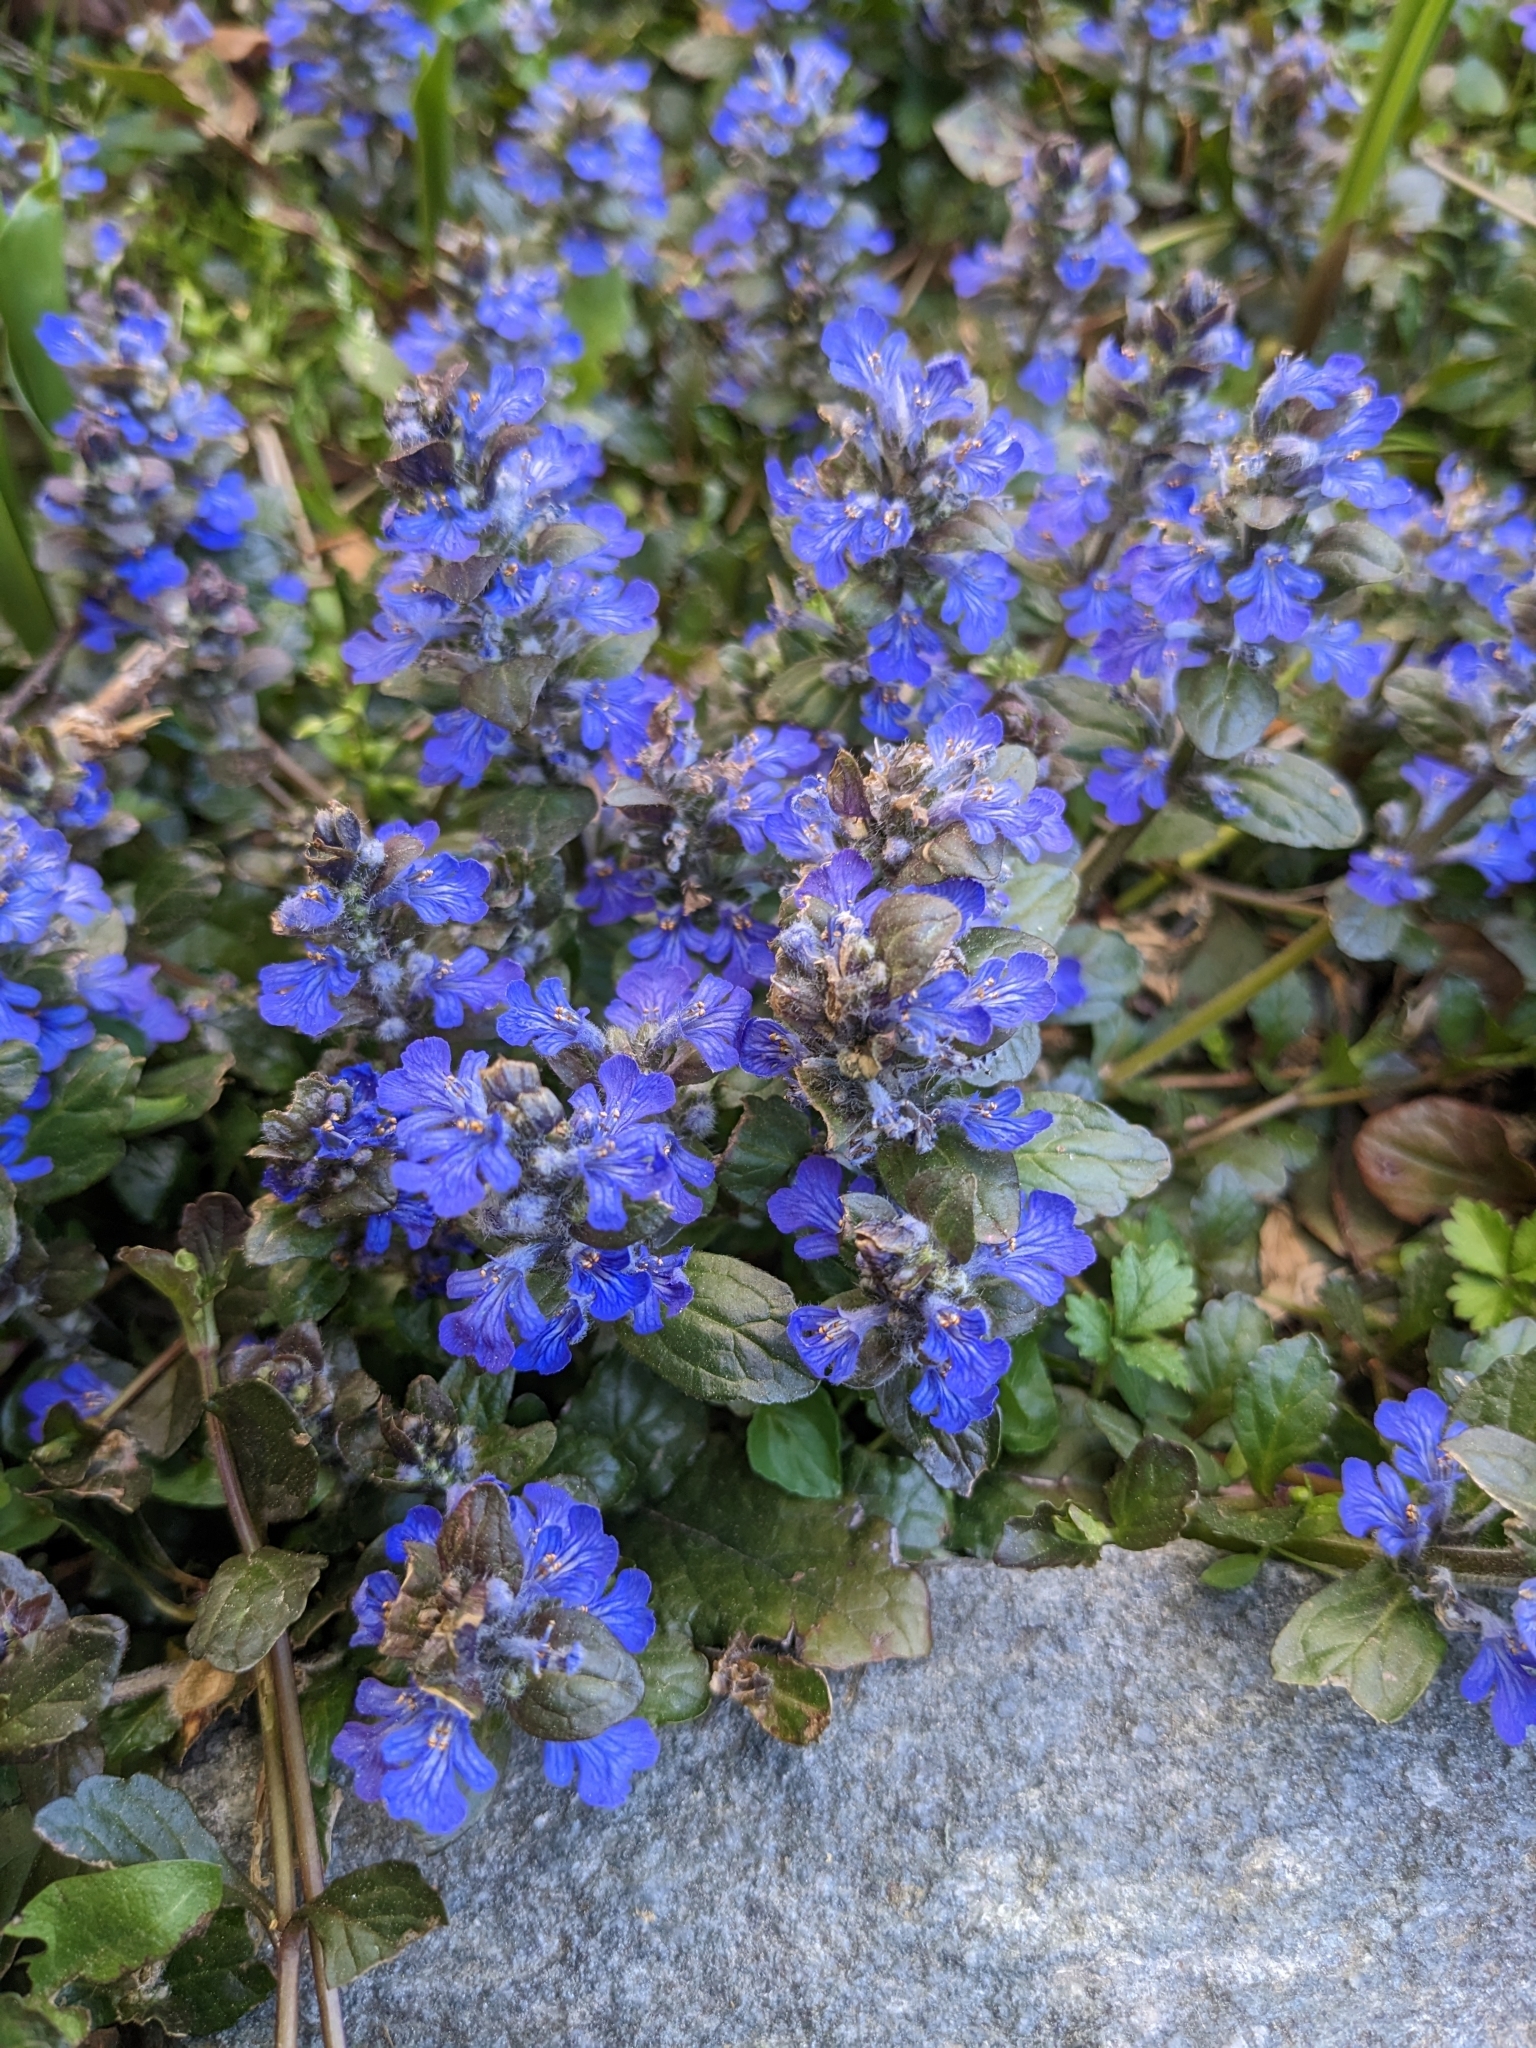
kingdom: Plantae
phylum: Tracheophyta
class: Magnoliopsida
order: Lamiales
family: Lamiaceae
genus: Ajuga
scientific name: Ajuga reptans
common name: Bugle
